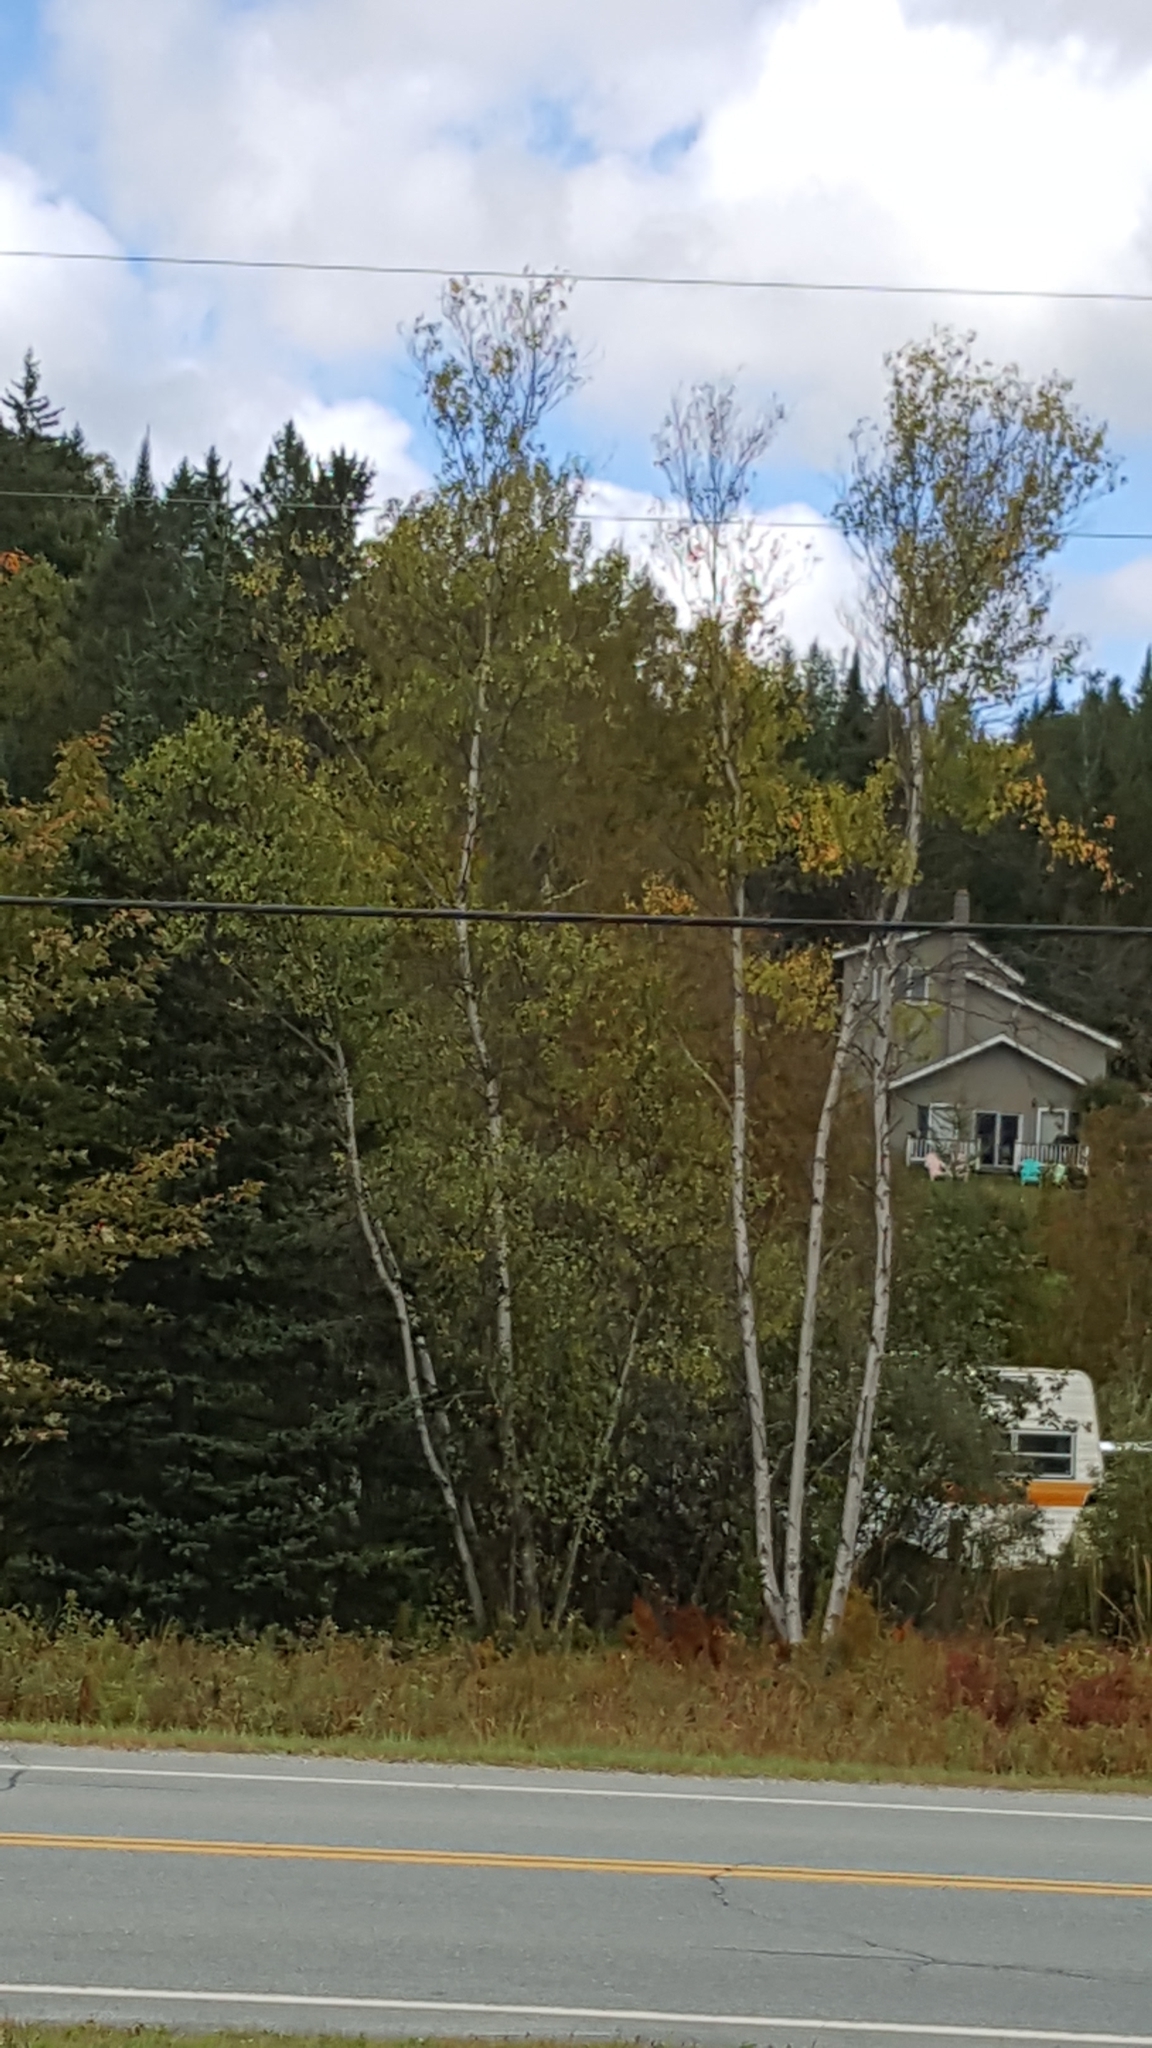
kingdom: Plantae
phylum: Tracheophyta
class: Magnoliopsida
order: Fagales
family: Betulaceae
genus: Betula
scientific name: Betula populifolia
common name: Fire birch
